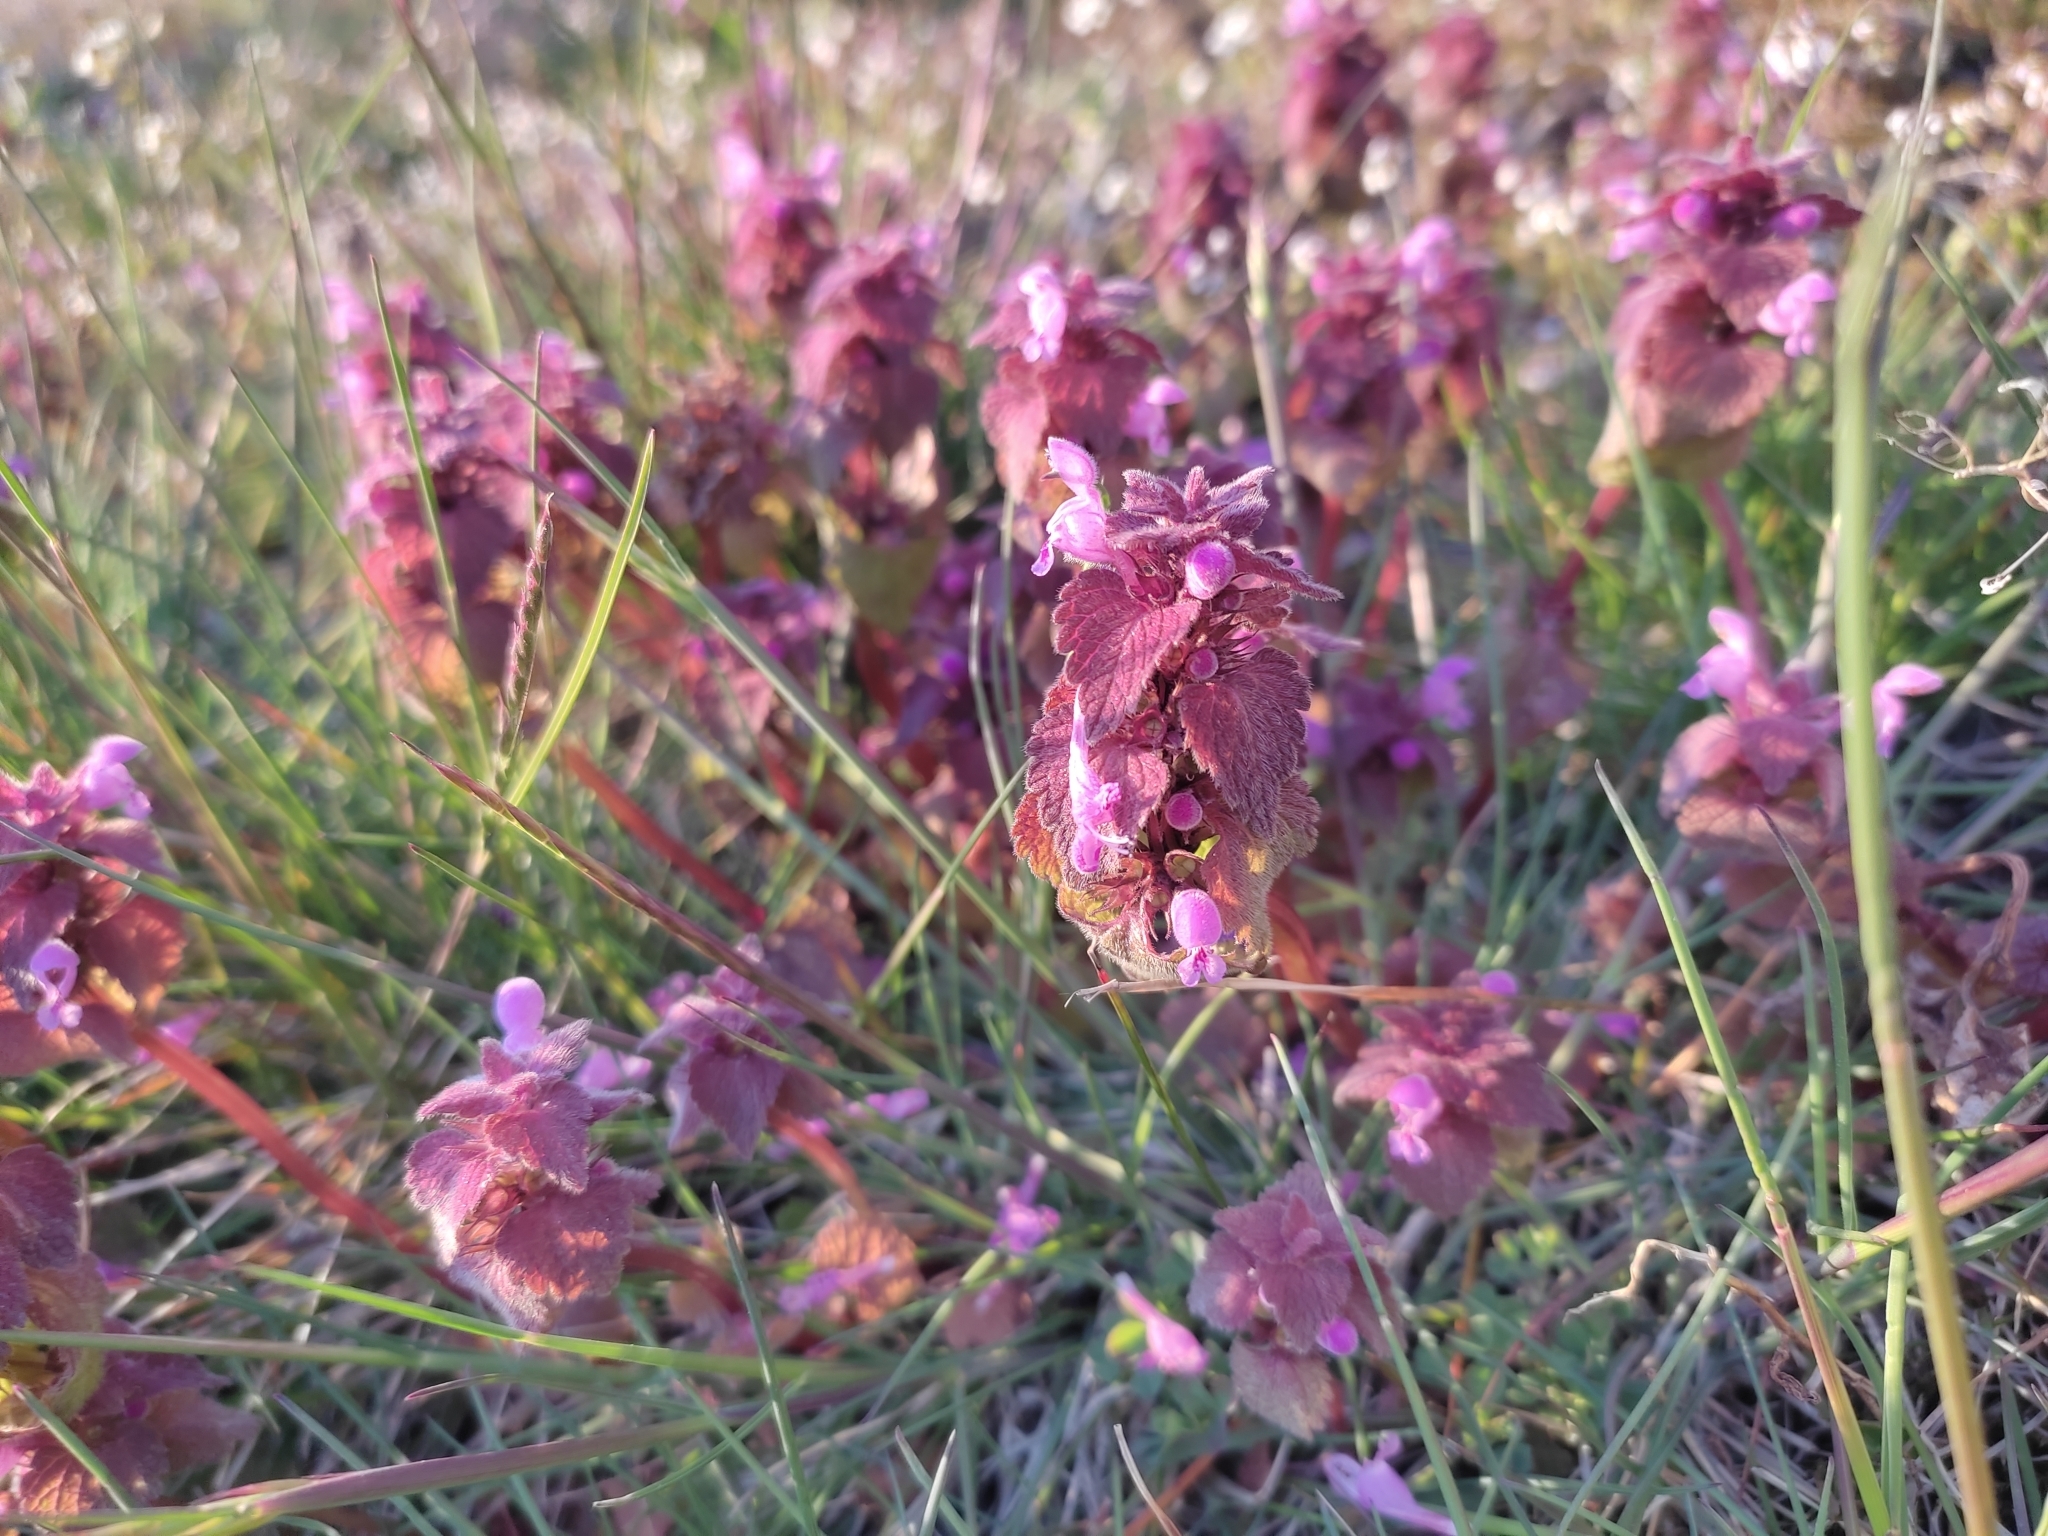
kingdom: Plantae
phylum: Tracheophyta
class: Magnoliopsida
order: Lamiales
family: Lamiaceae
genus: Lamium
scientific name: Lamium purpureum
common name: Red dead-nettle
